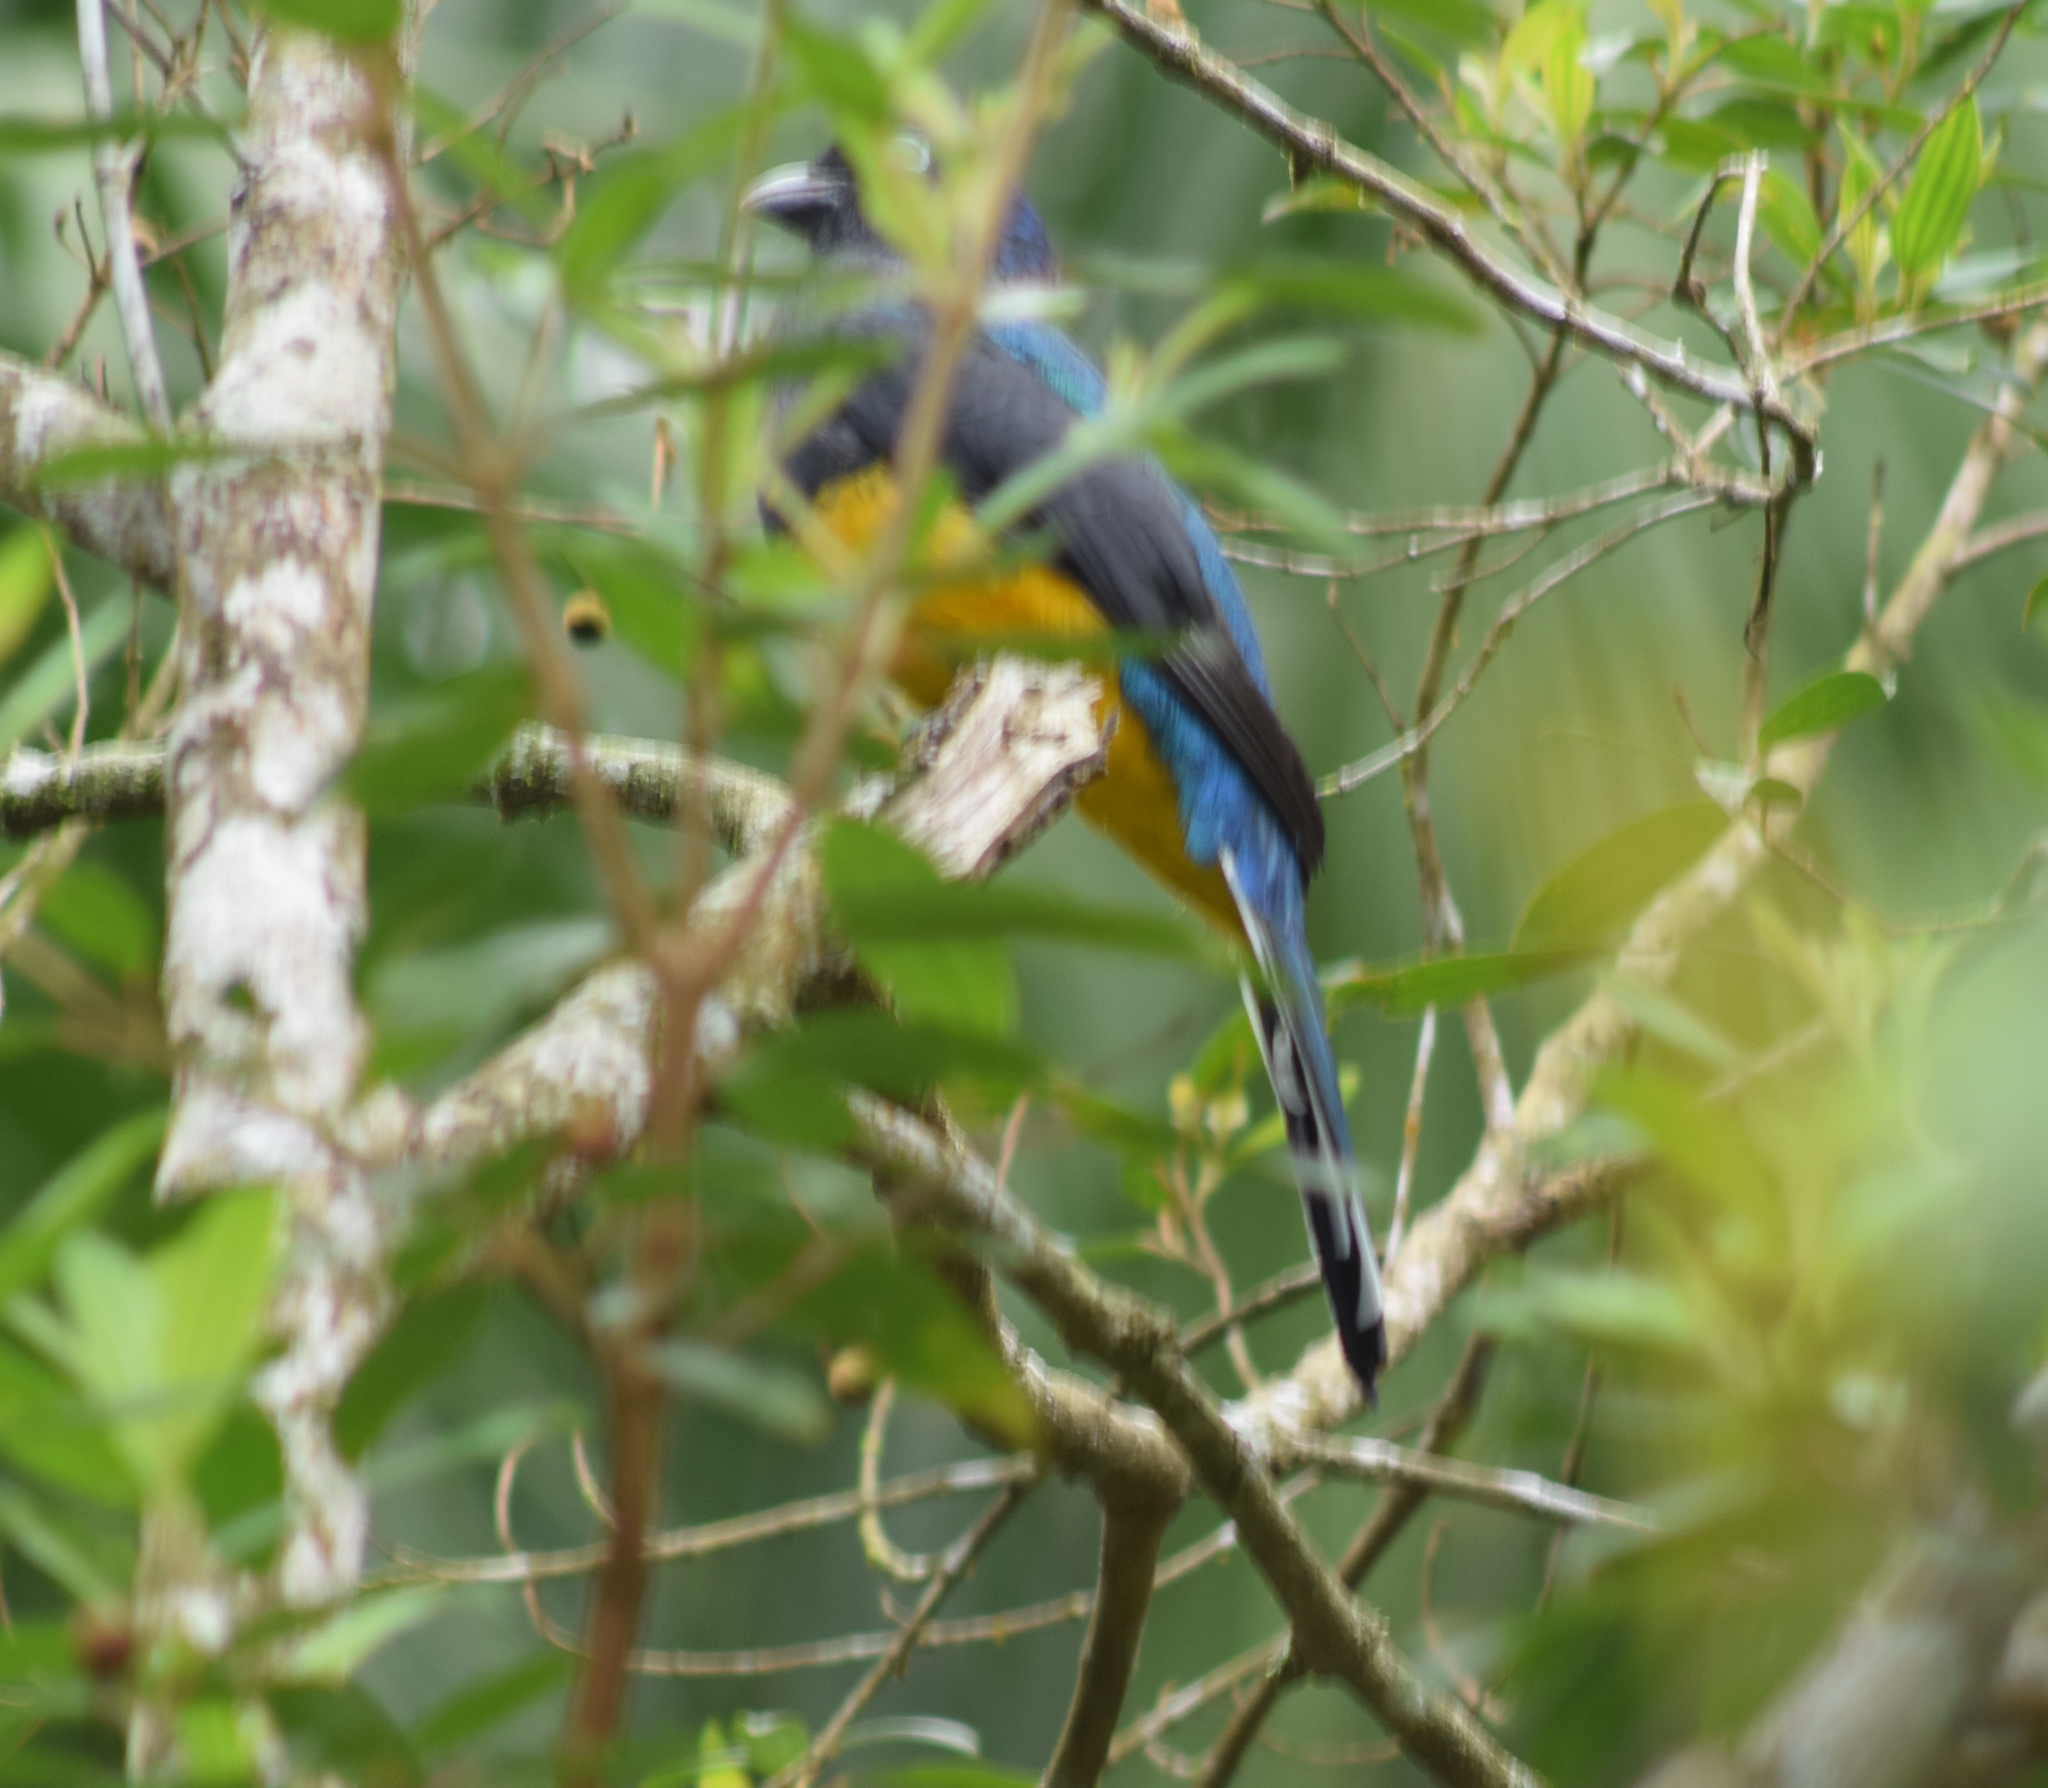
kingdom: Animalia
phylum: Chordata
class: Aves
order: Trogoniformes
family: Trogonidae
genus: Trogon
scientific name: Trogon viridis
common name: Green-backed trogon
